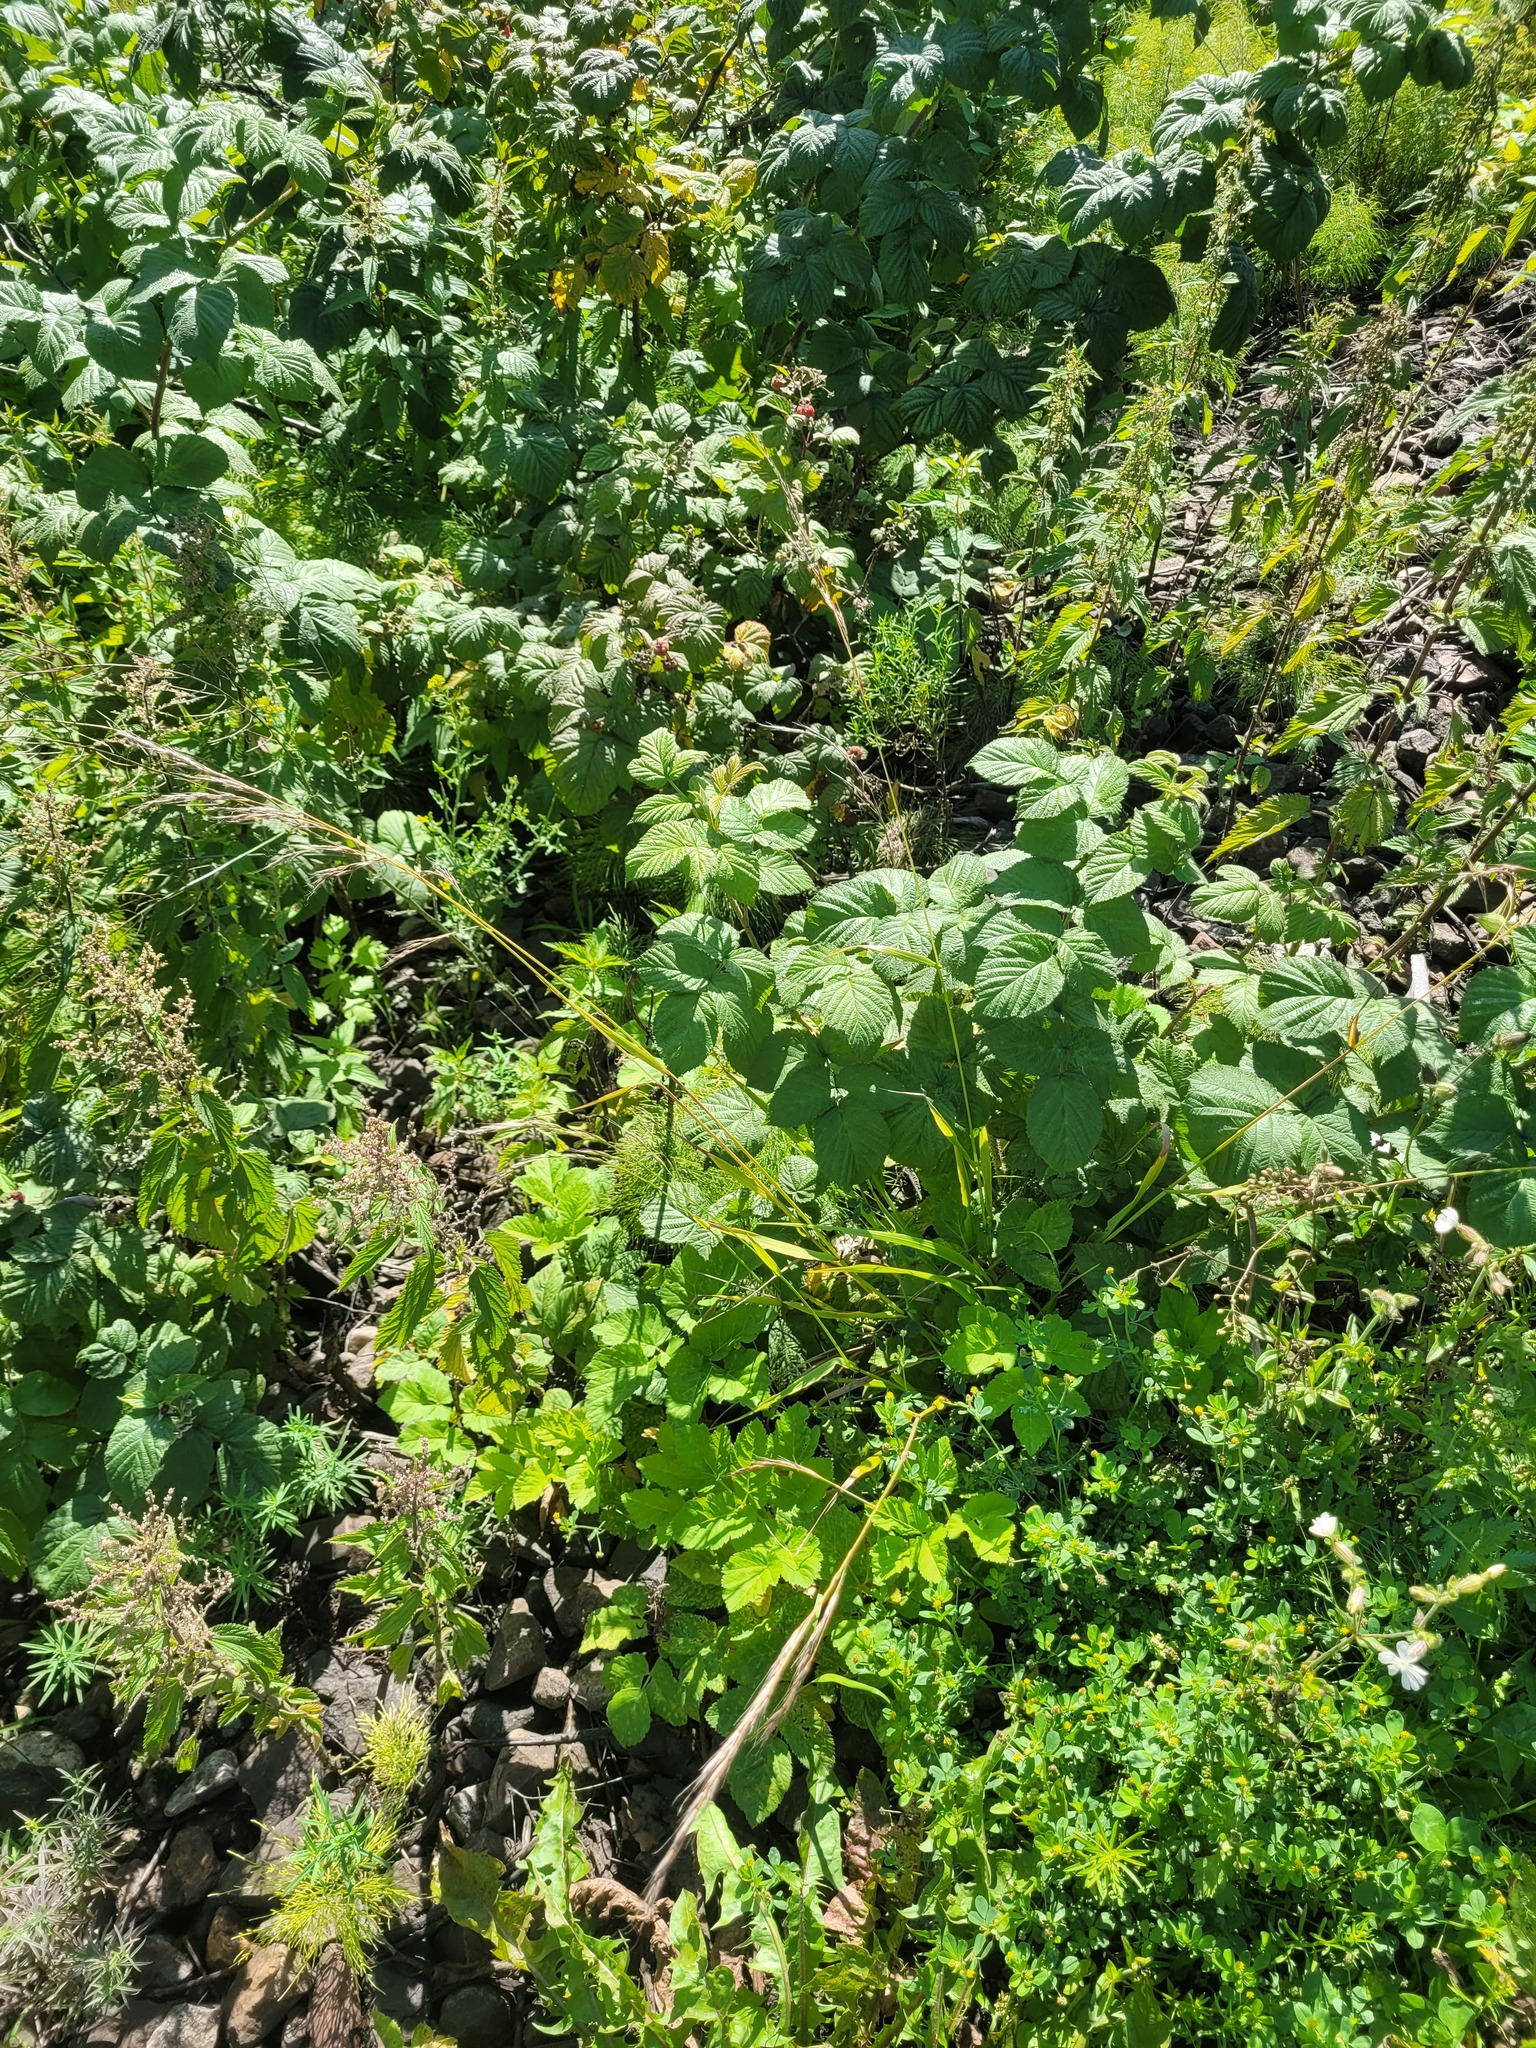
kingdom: Plantae
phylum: Tracheophyta
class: Liliopsida
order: Poales
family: Poaceae
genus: Lolium
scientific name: Lolium giganteum
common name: Giant fescue
